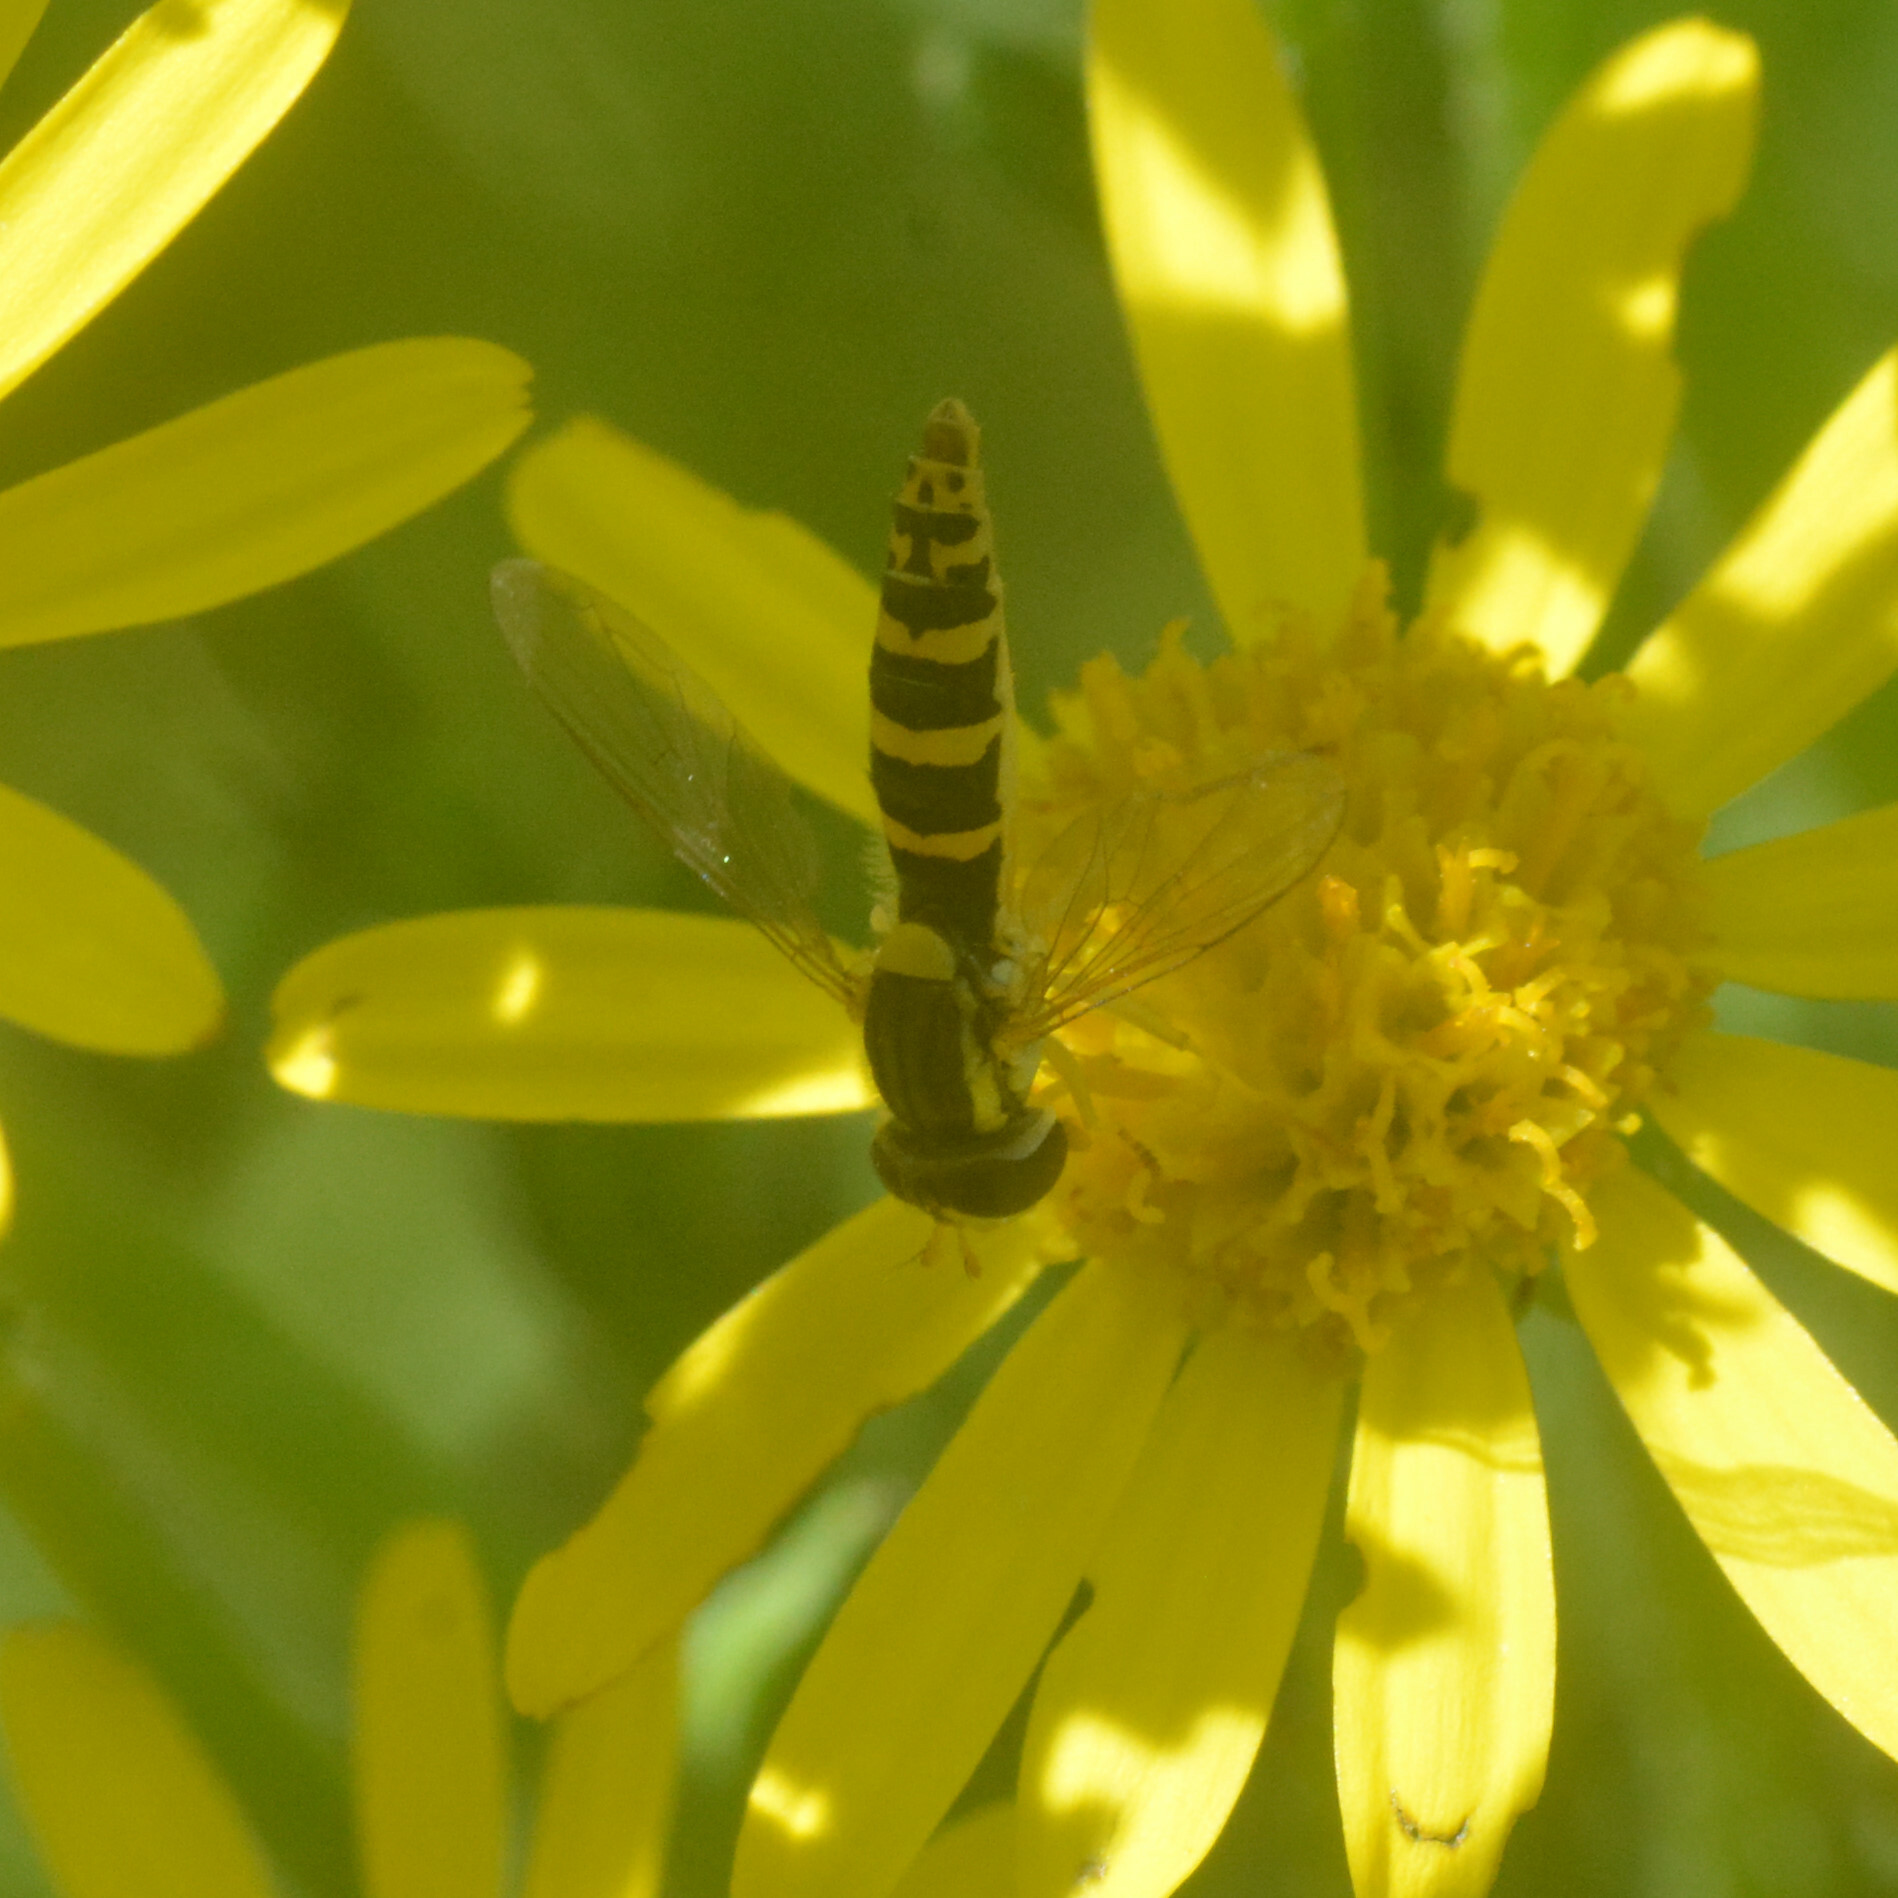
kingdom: Animalia
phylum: Arthropoda
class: Insecta
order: Diptera
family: Syrphidae
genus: Sphaerophoria
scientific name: Sphaerophoria
